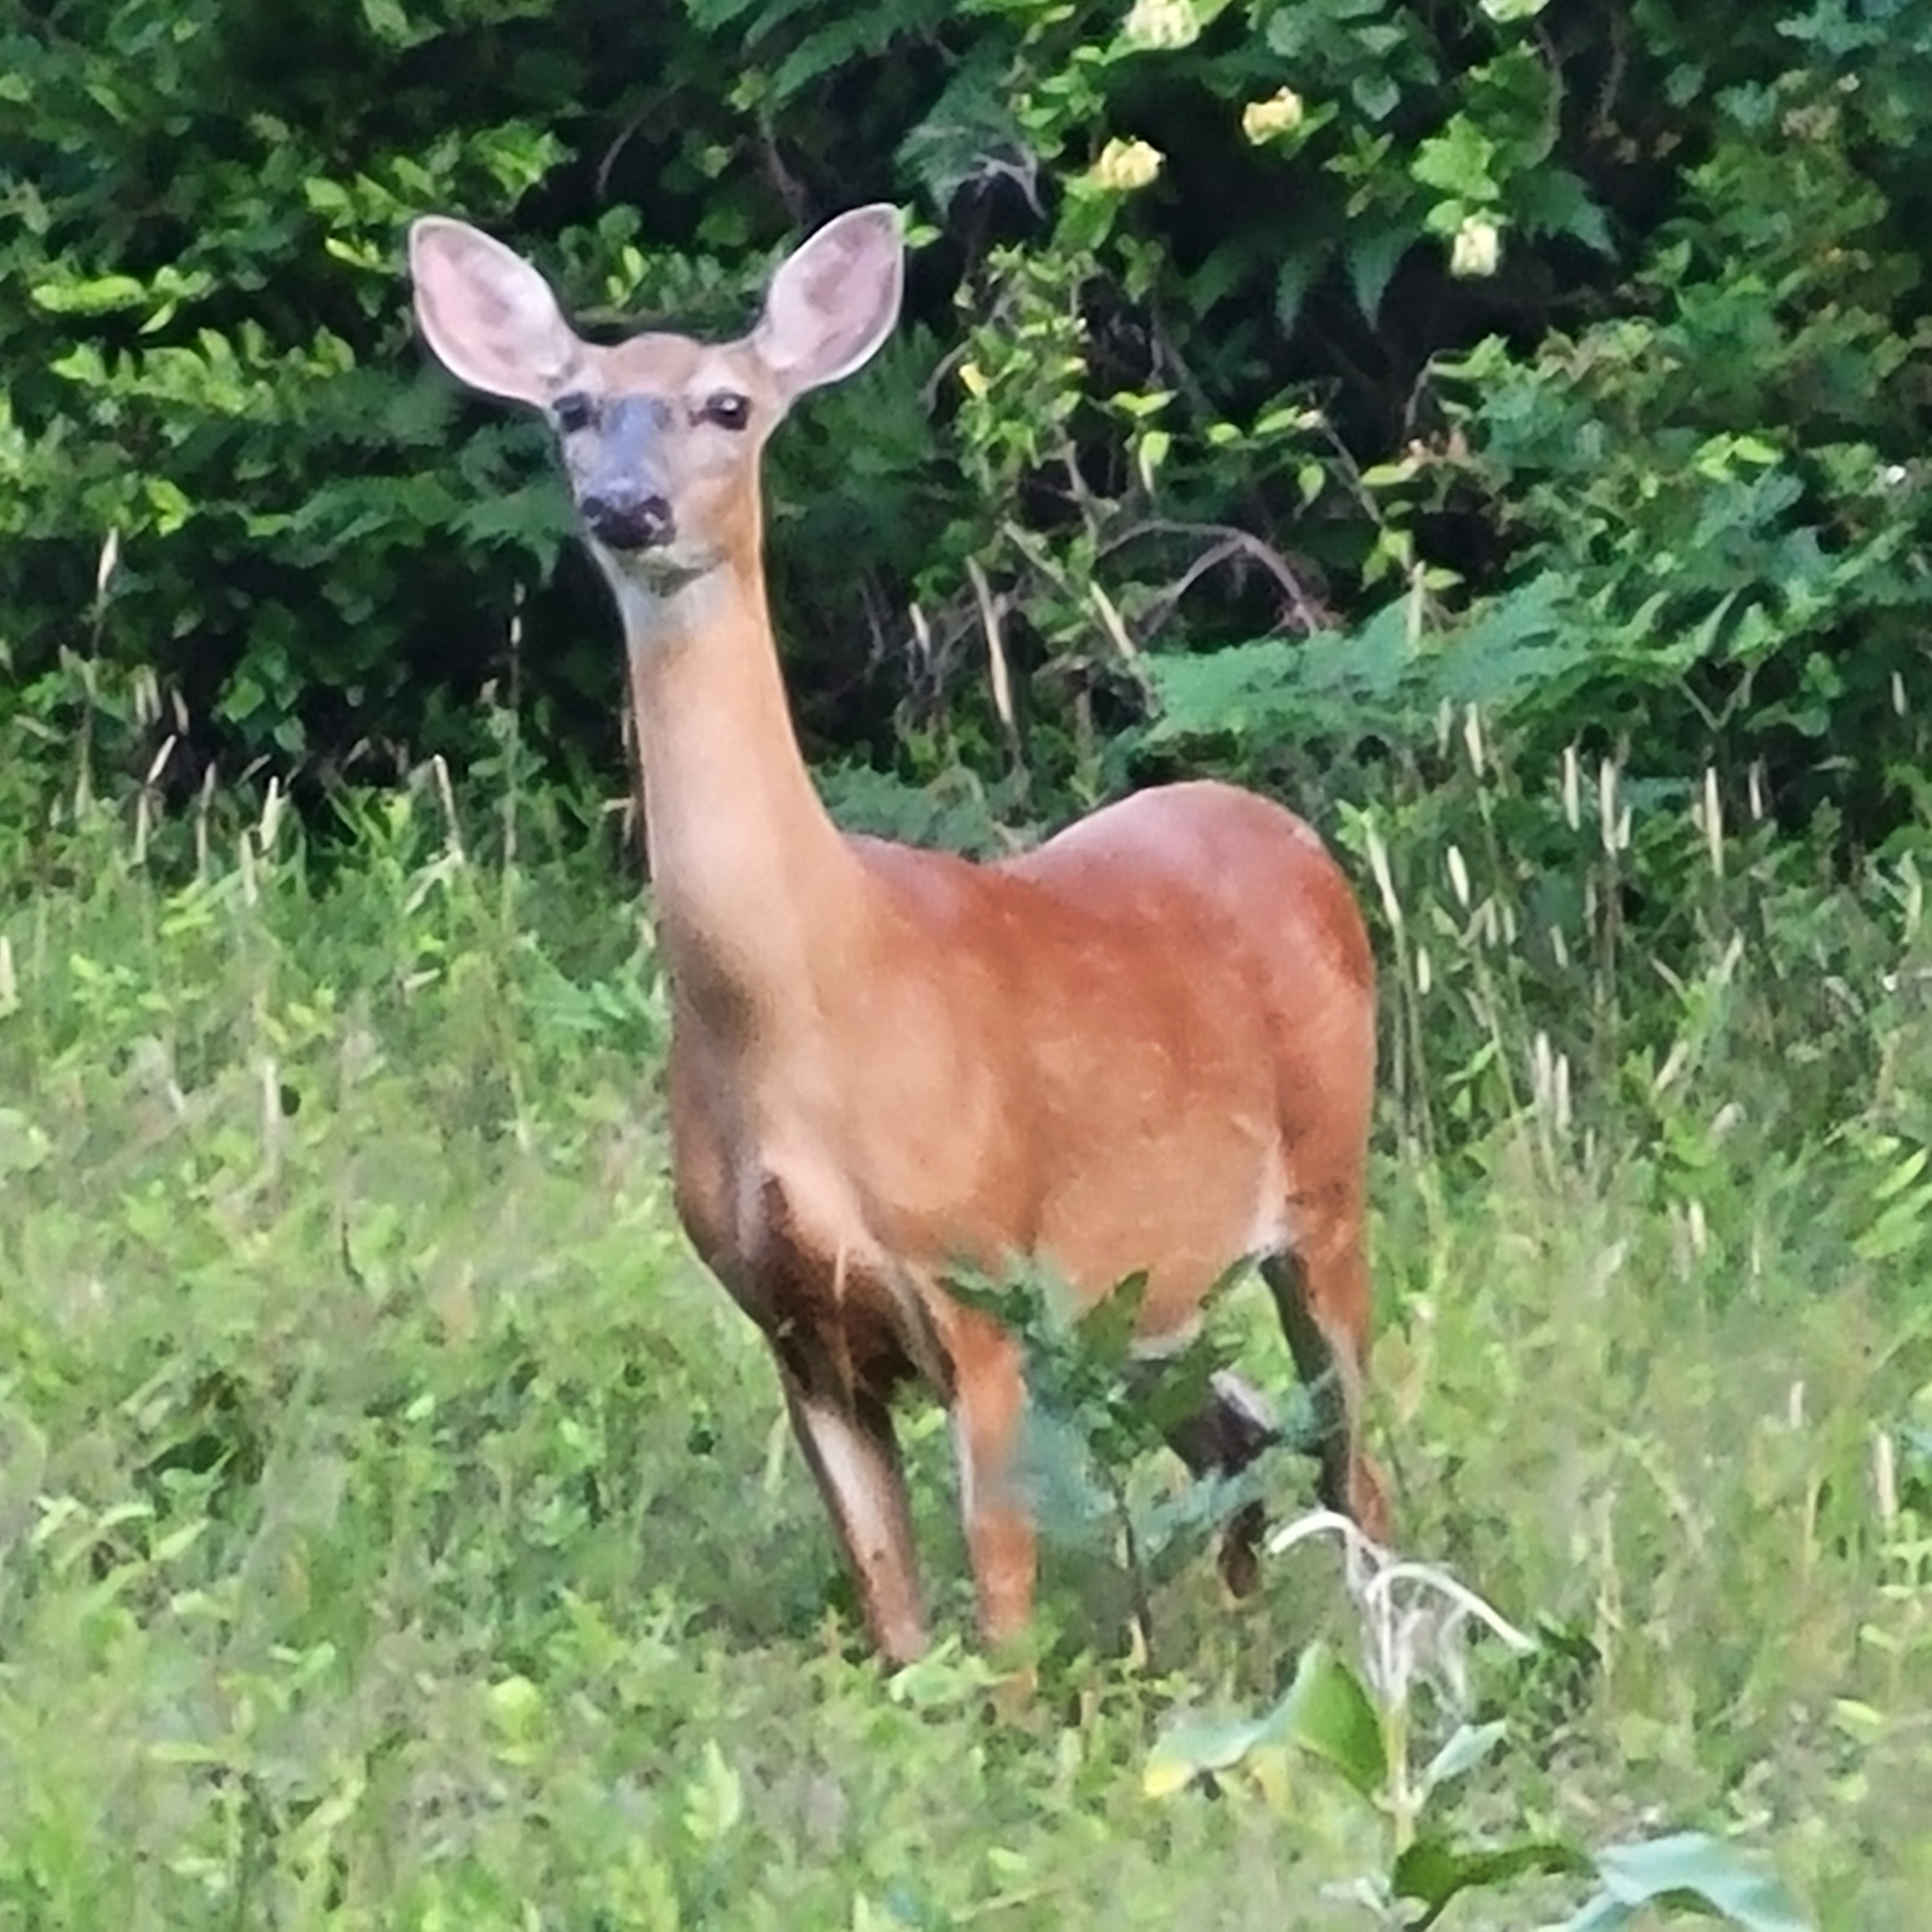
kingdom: Animalia
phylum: Chordata
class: Mammalia
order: Artiodactyla
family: Cervidae
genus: Odocoileus
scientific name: Odocoileus virginianus
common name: White-tailed deer
